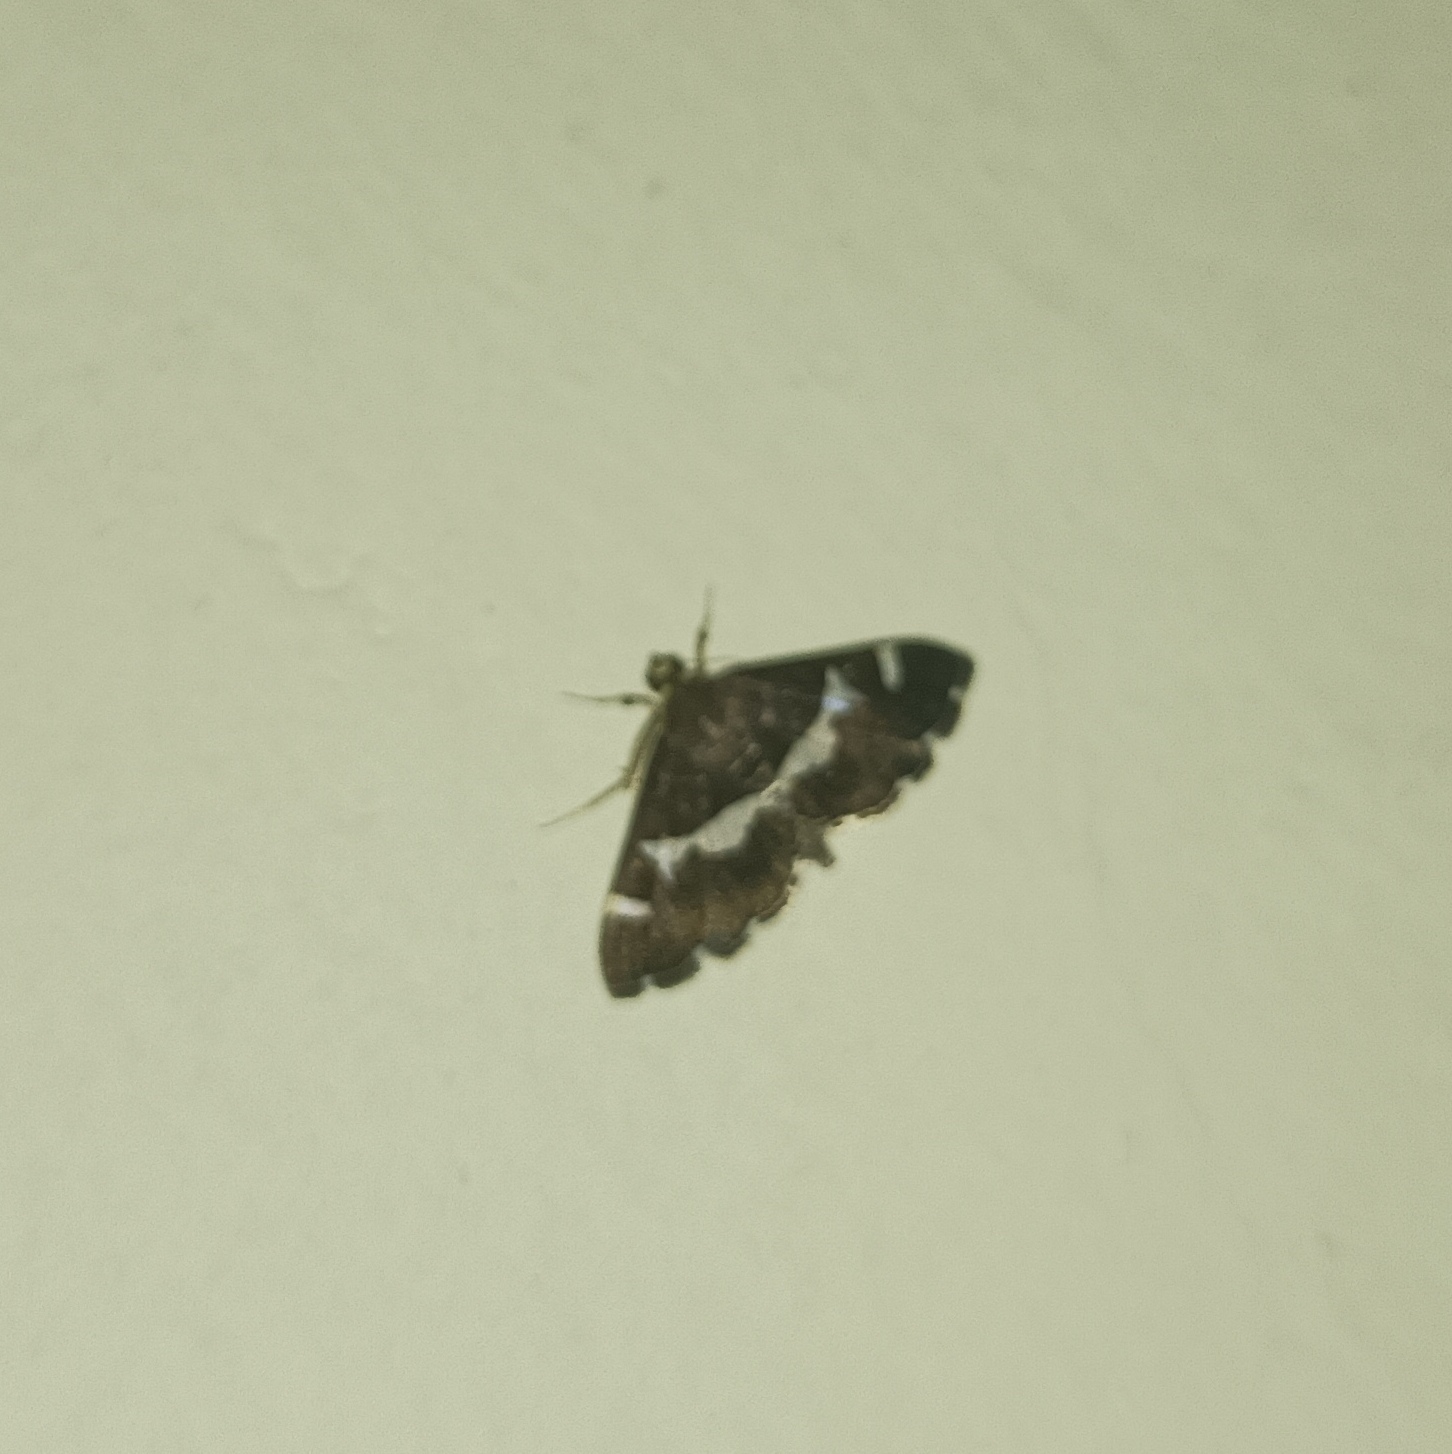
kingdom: Animalia
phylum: Arthropoda
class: Insecta
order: Lepidoptera
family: Crambidae
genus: Spoladea
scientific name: Spoladea recurvalis
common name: Beet webworm moth
